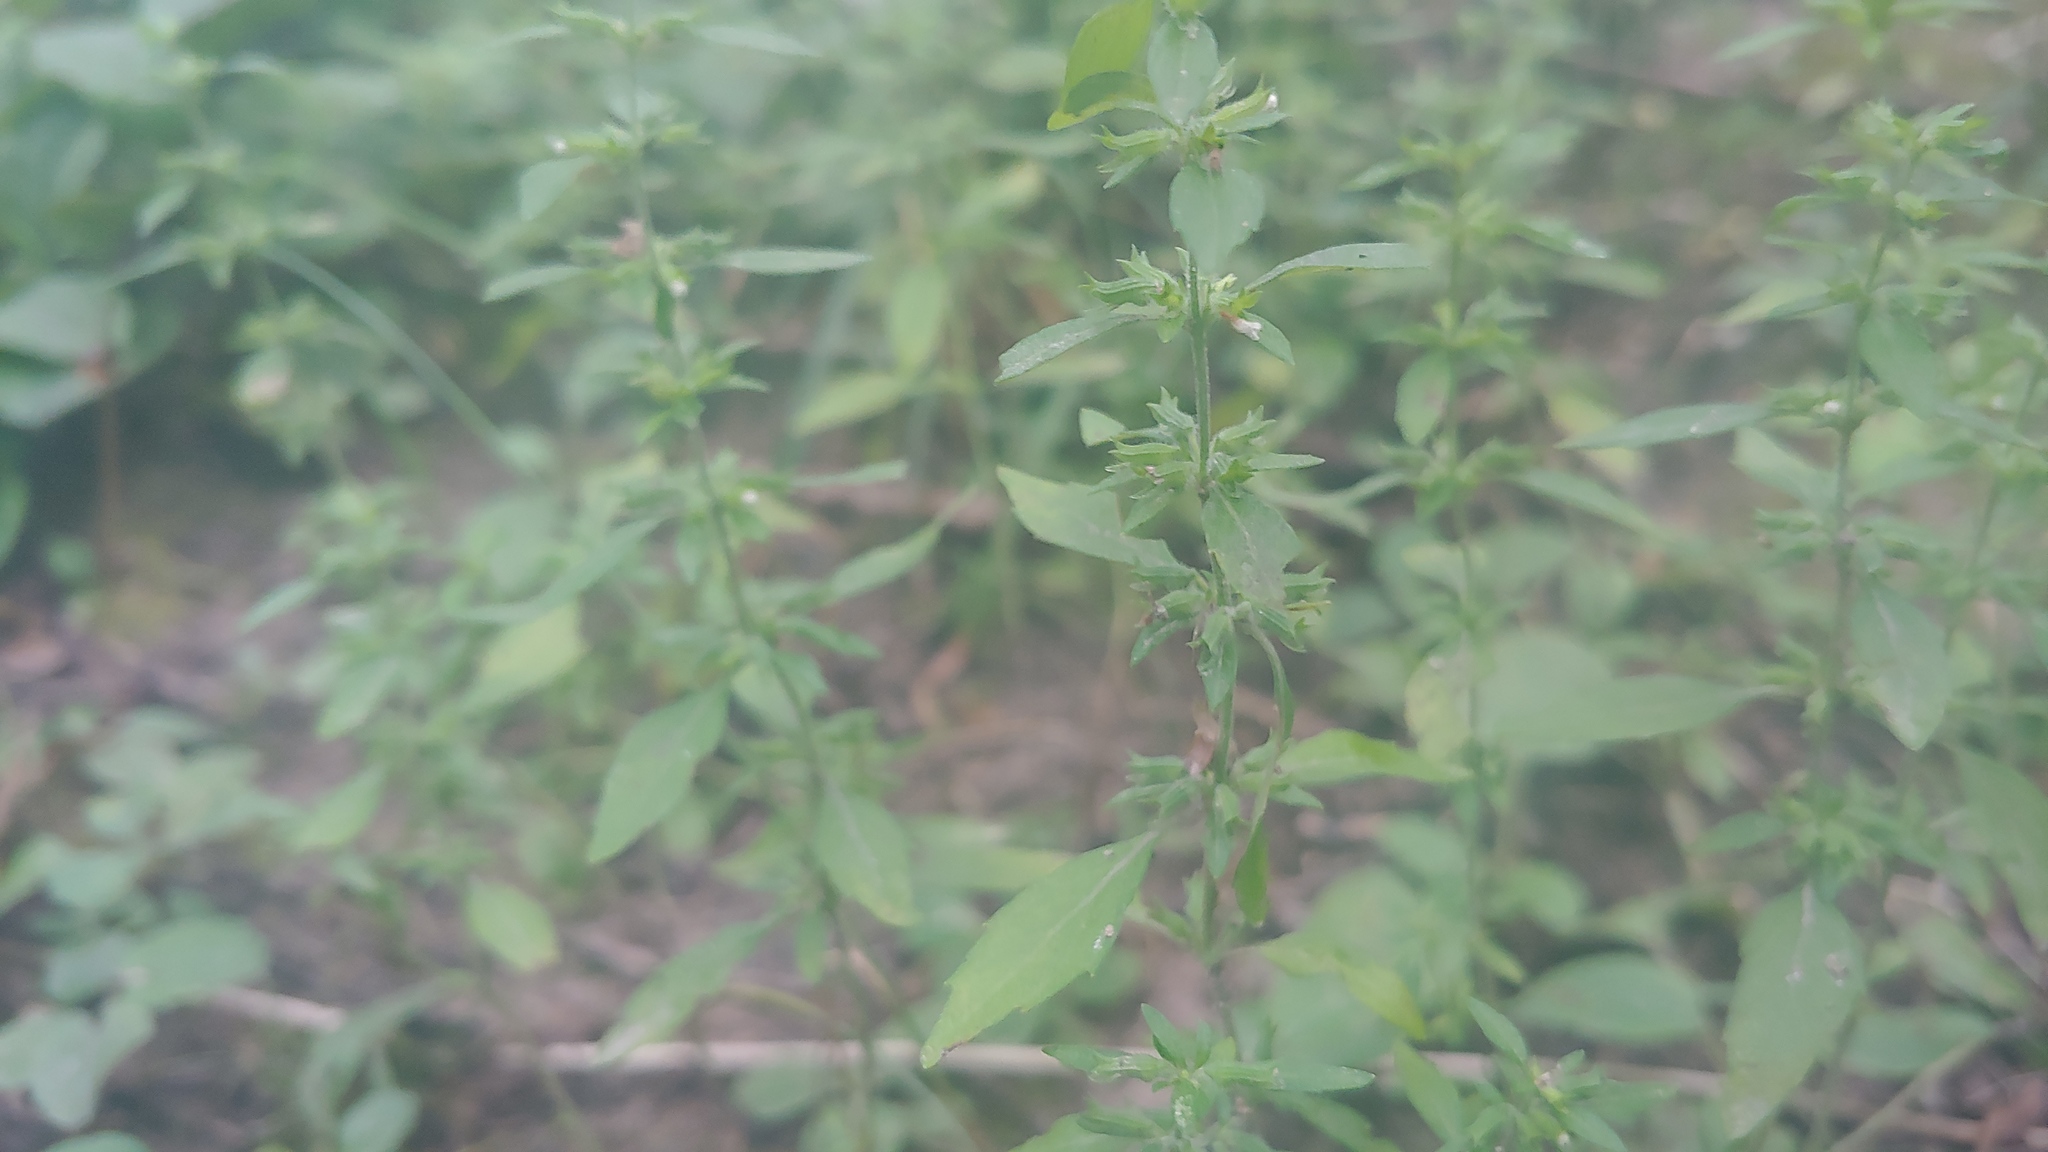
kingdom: Plantae
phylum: Tracheophyta
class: Magnoliopsida
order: Lamiales
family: Lamiaceae
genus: Hedeoma
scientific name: Hedeoma pulegioides
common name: American false pennyroyal
